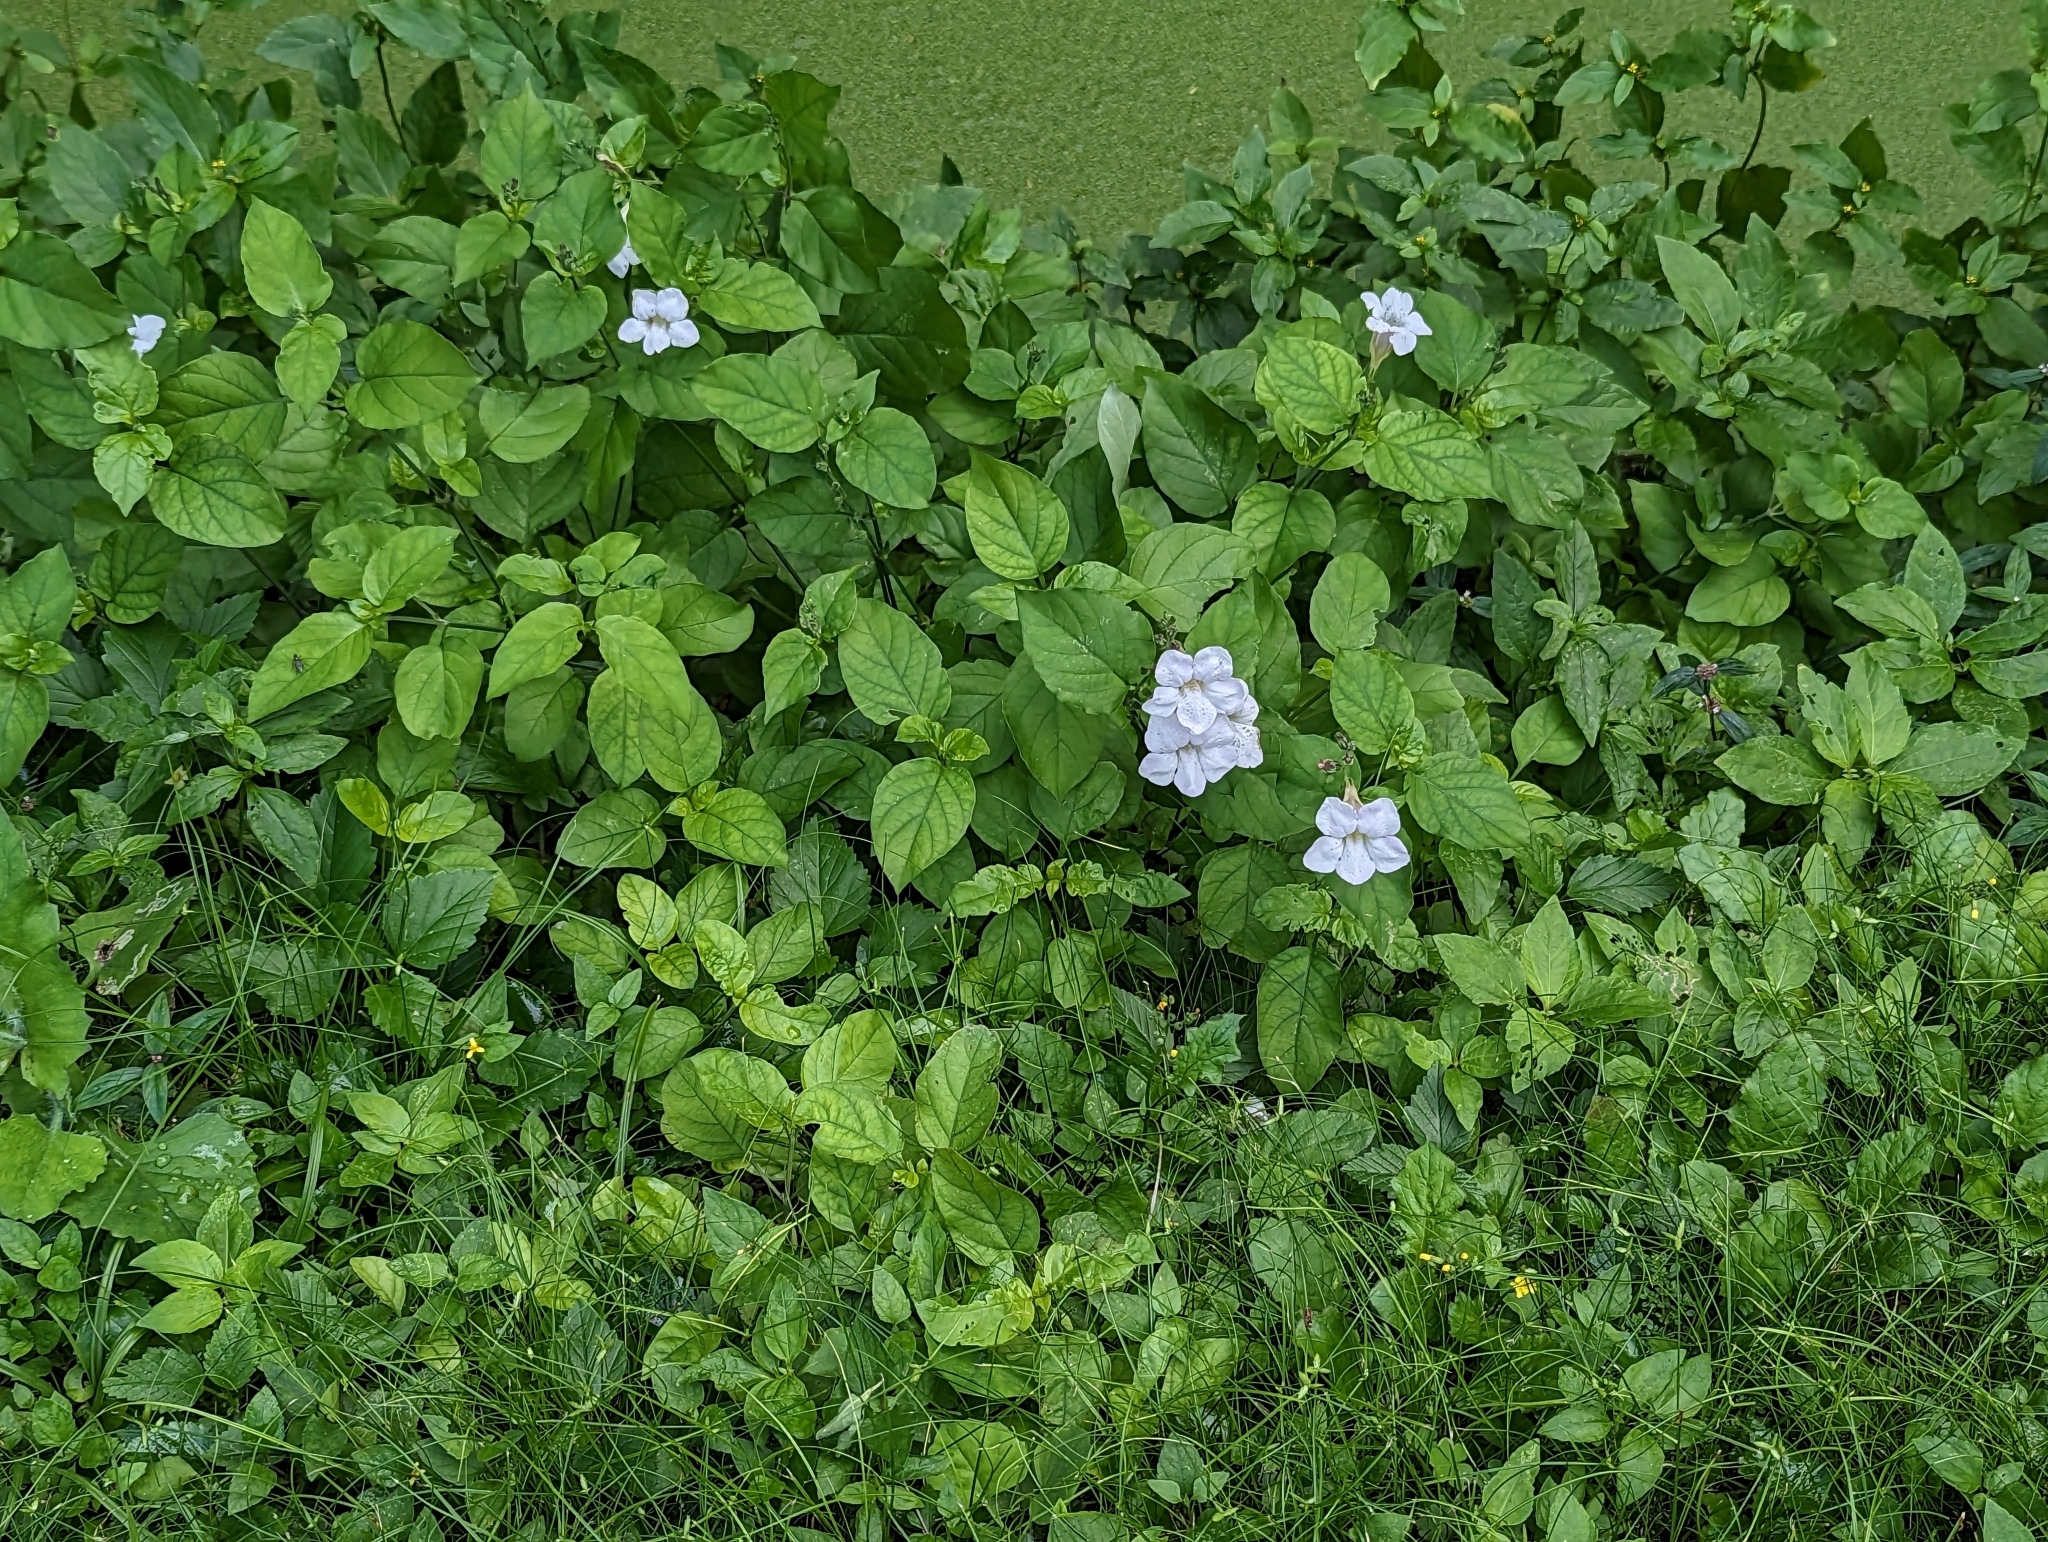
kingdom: Plantae
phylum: Tracheophyta
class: Magnoliopsida
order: Lamiales
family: Acanthaceae
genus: Asystasia
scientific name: Asystasia gangetica
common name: Chinese violet
